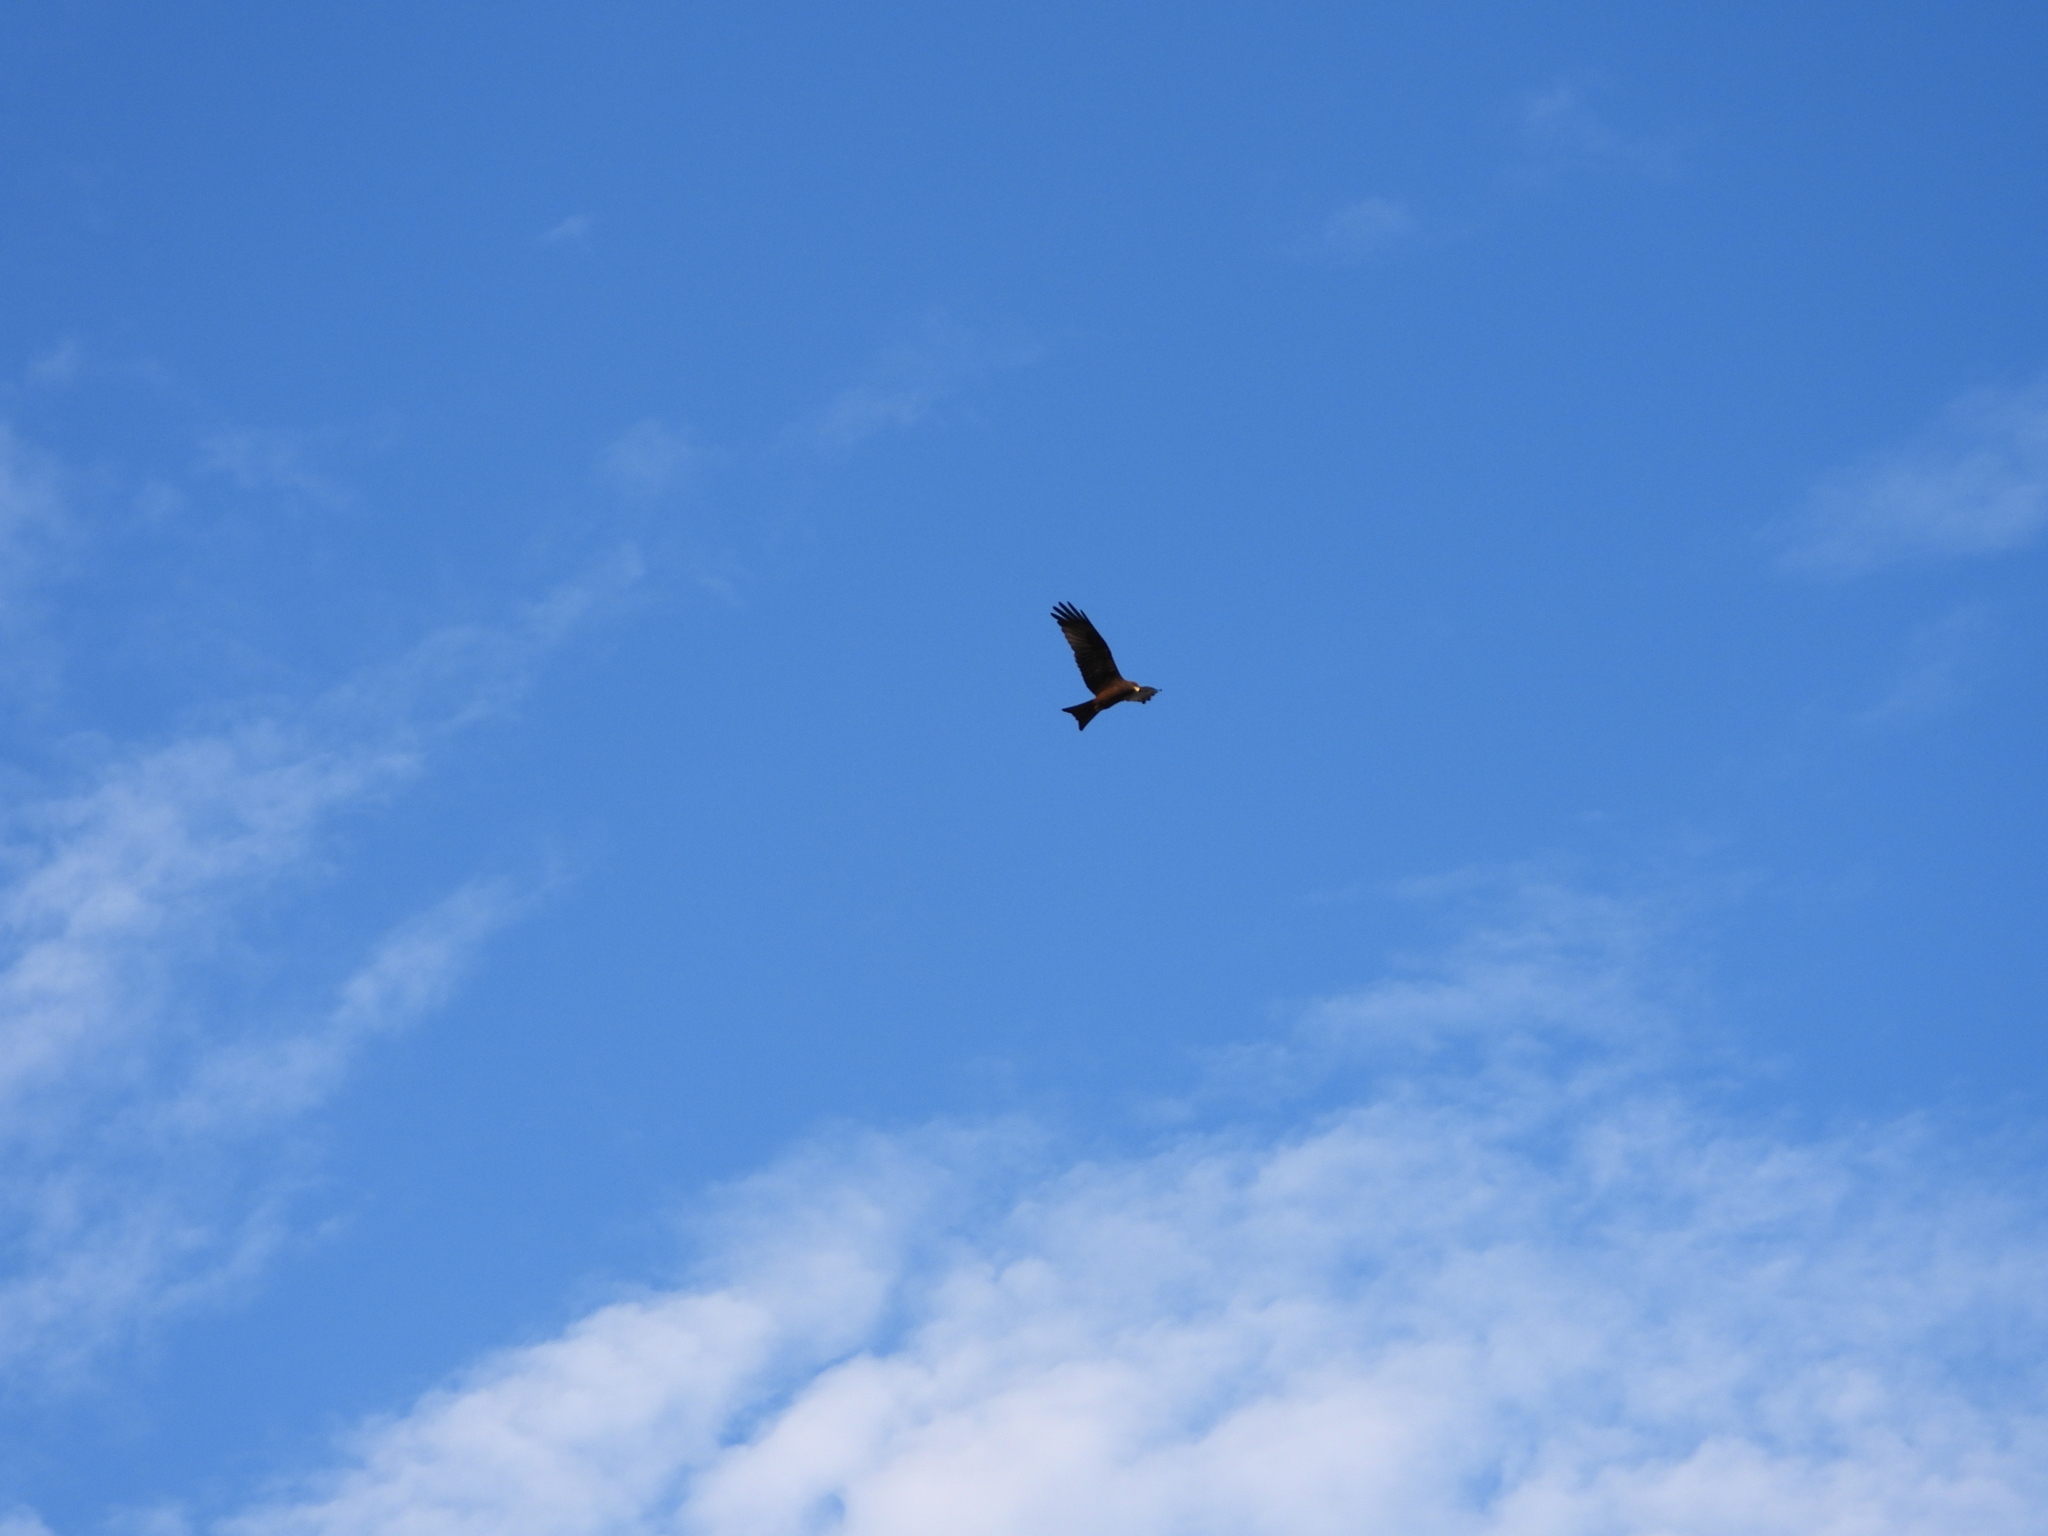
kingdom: Animalia
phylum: Chordata
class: Aves
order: Accipitriformes
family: Accipitridae
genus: Milvus
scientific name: Milvus migrans
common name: Black kite
